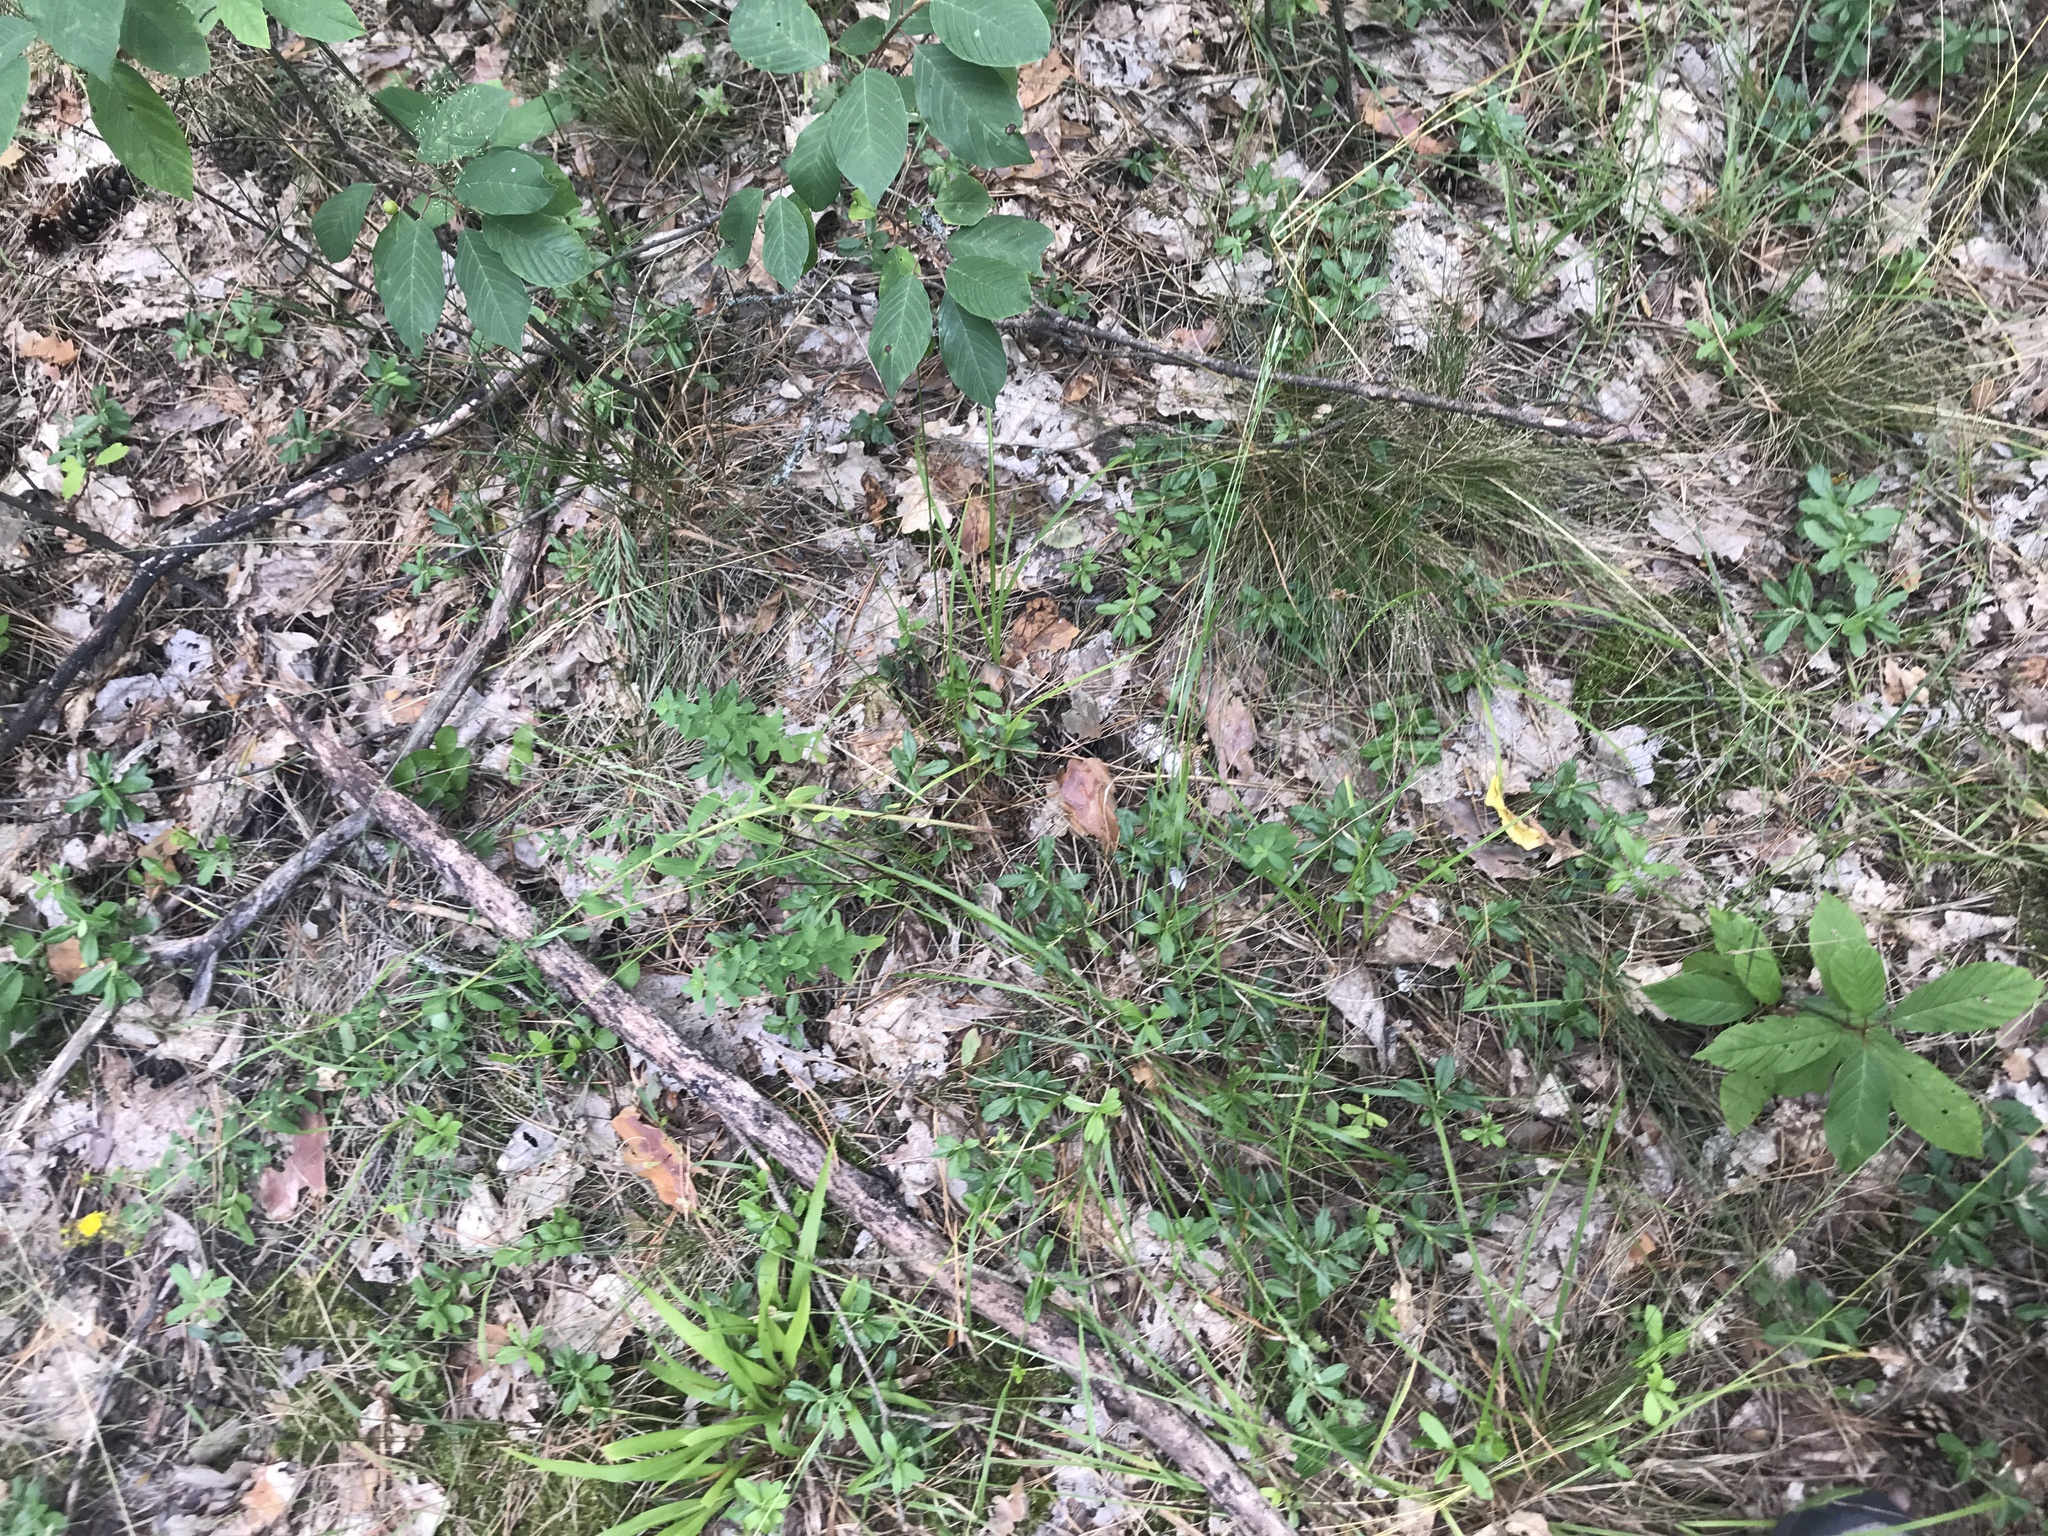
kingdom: Plantae
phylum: Tracheophyta
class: Magnoliopsida
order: Ericales
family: Ericaceae
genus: Vaccinium
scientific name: Vaccinium vitis-idaea
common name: Cowberry
